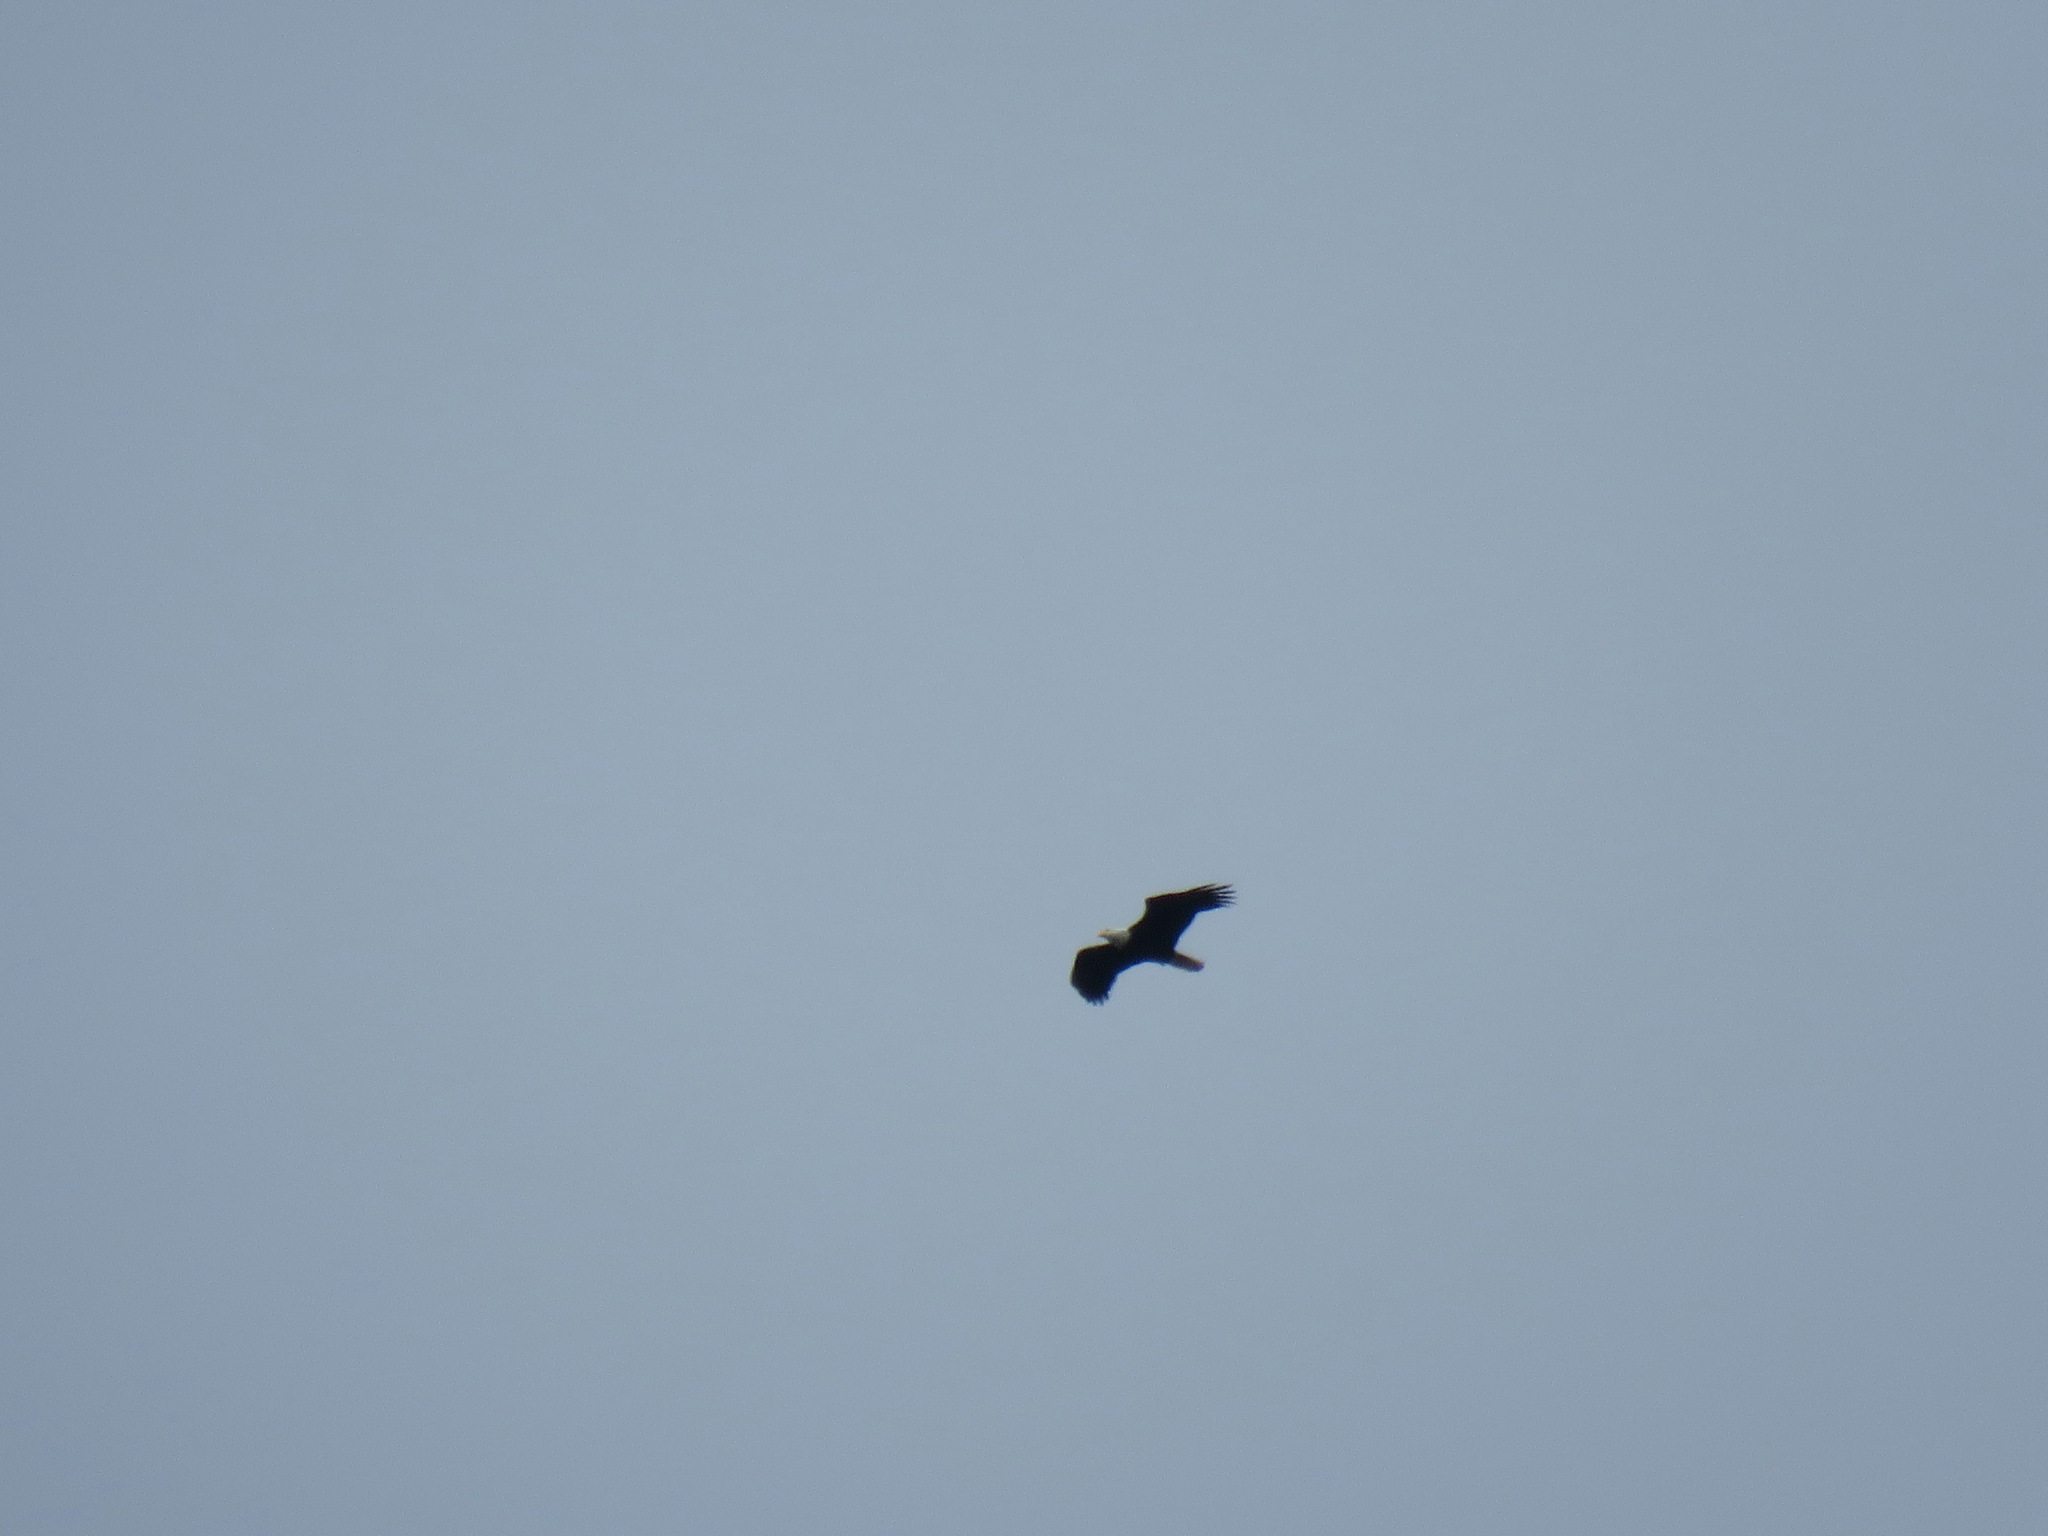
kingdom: Animalia
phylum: Chordata
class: Aves
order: Accipitriformes
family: Accipitridae
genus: Haliaeetus
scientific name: Haliaeetus leucocephalus
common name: Bald eagle
